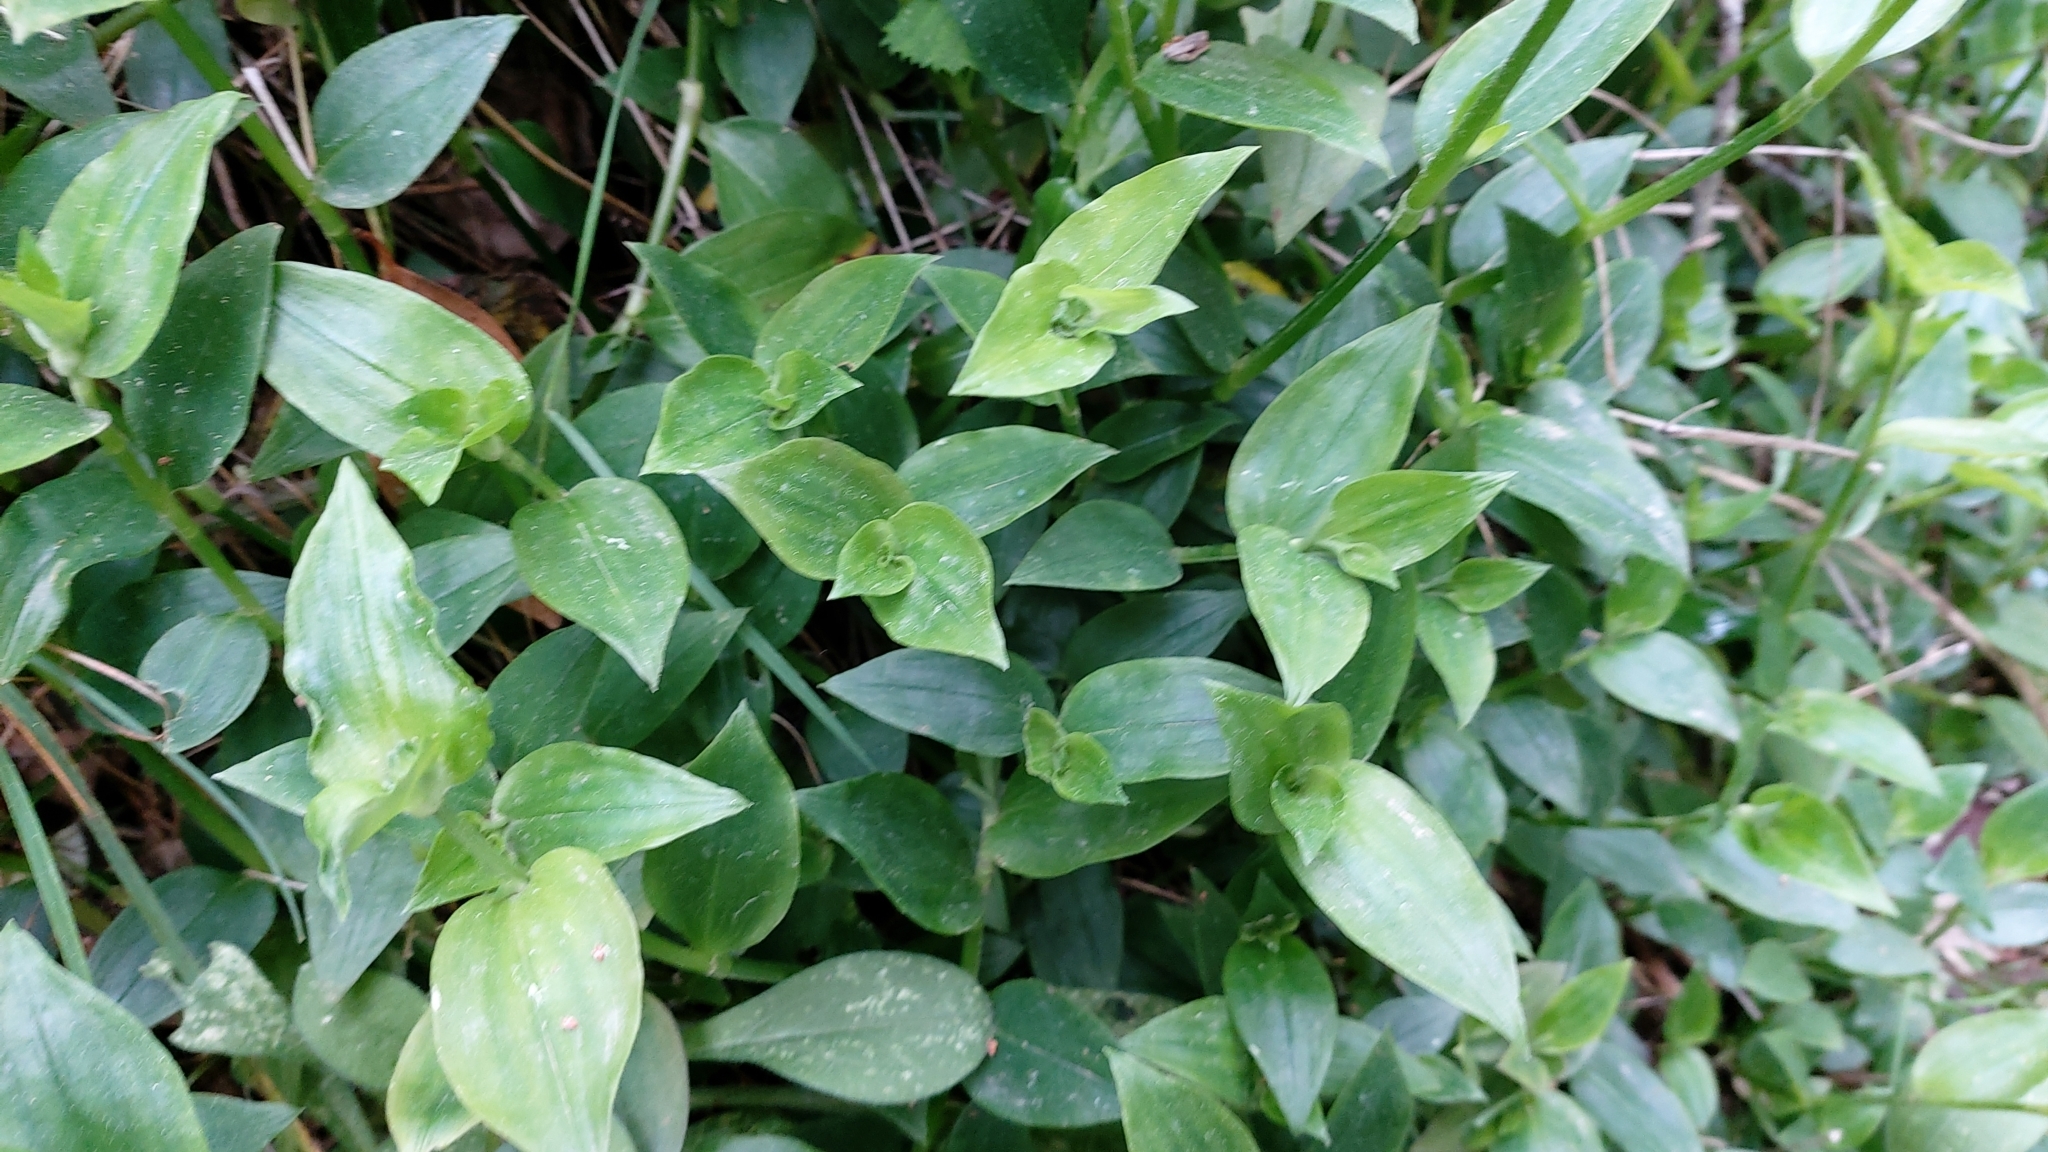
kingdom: Plantae
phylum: Tracheophyta
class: Liliopsida
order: Commelinales
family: Commelinaceae
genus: Tradescantia
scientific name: Tradescantia fluminensis
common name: Wandering-jew
